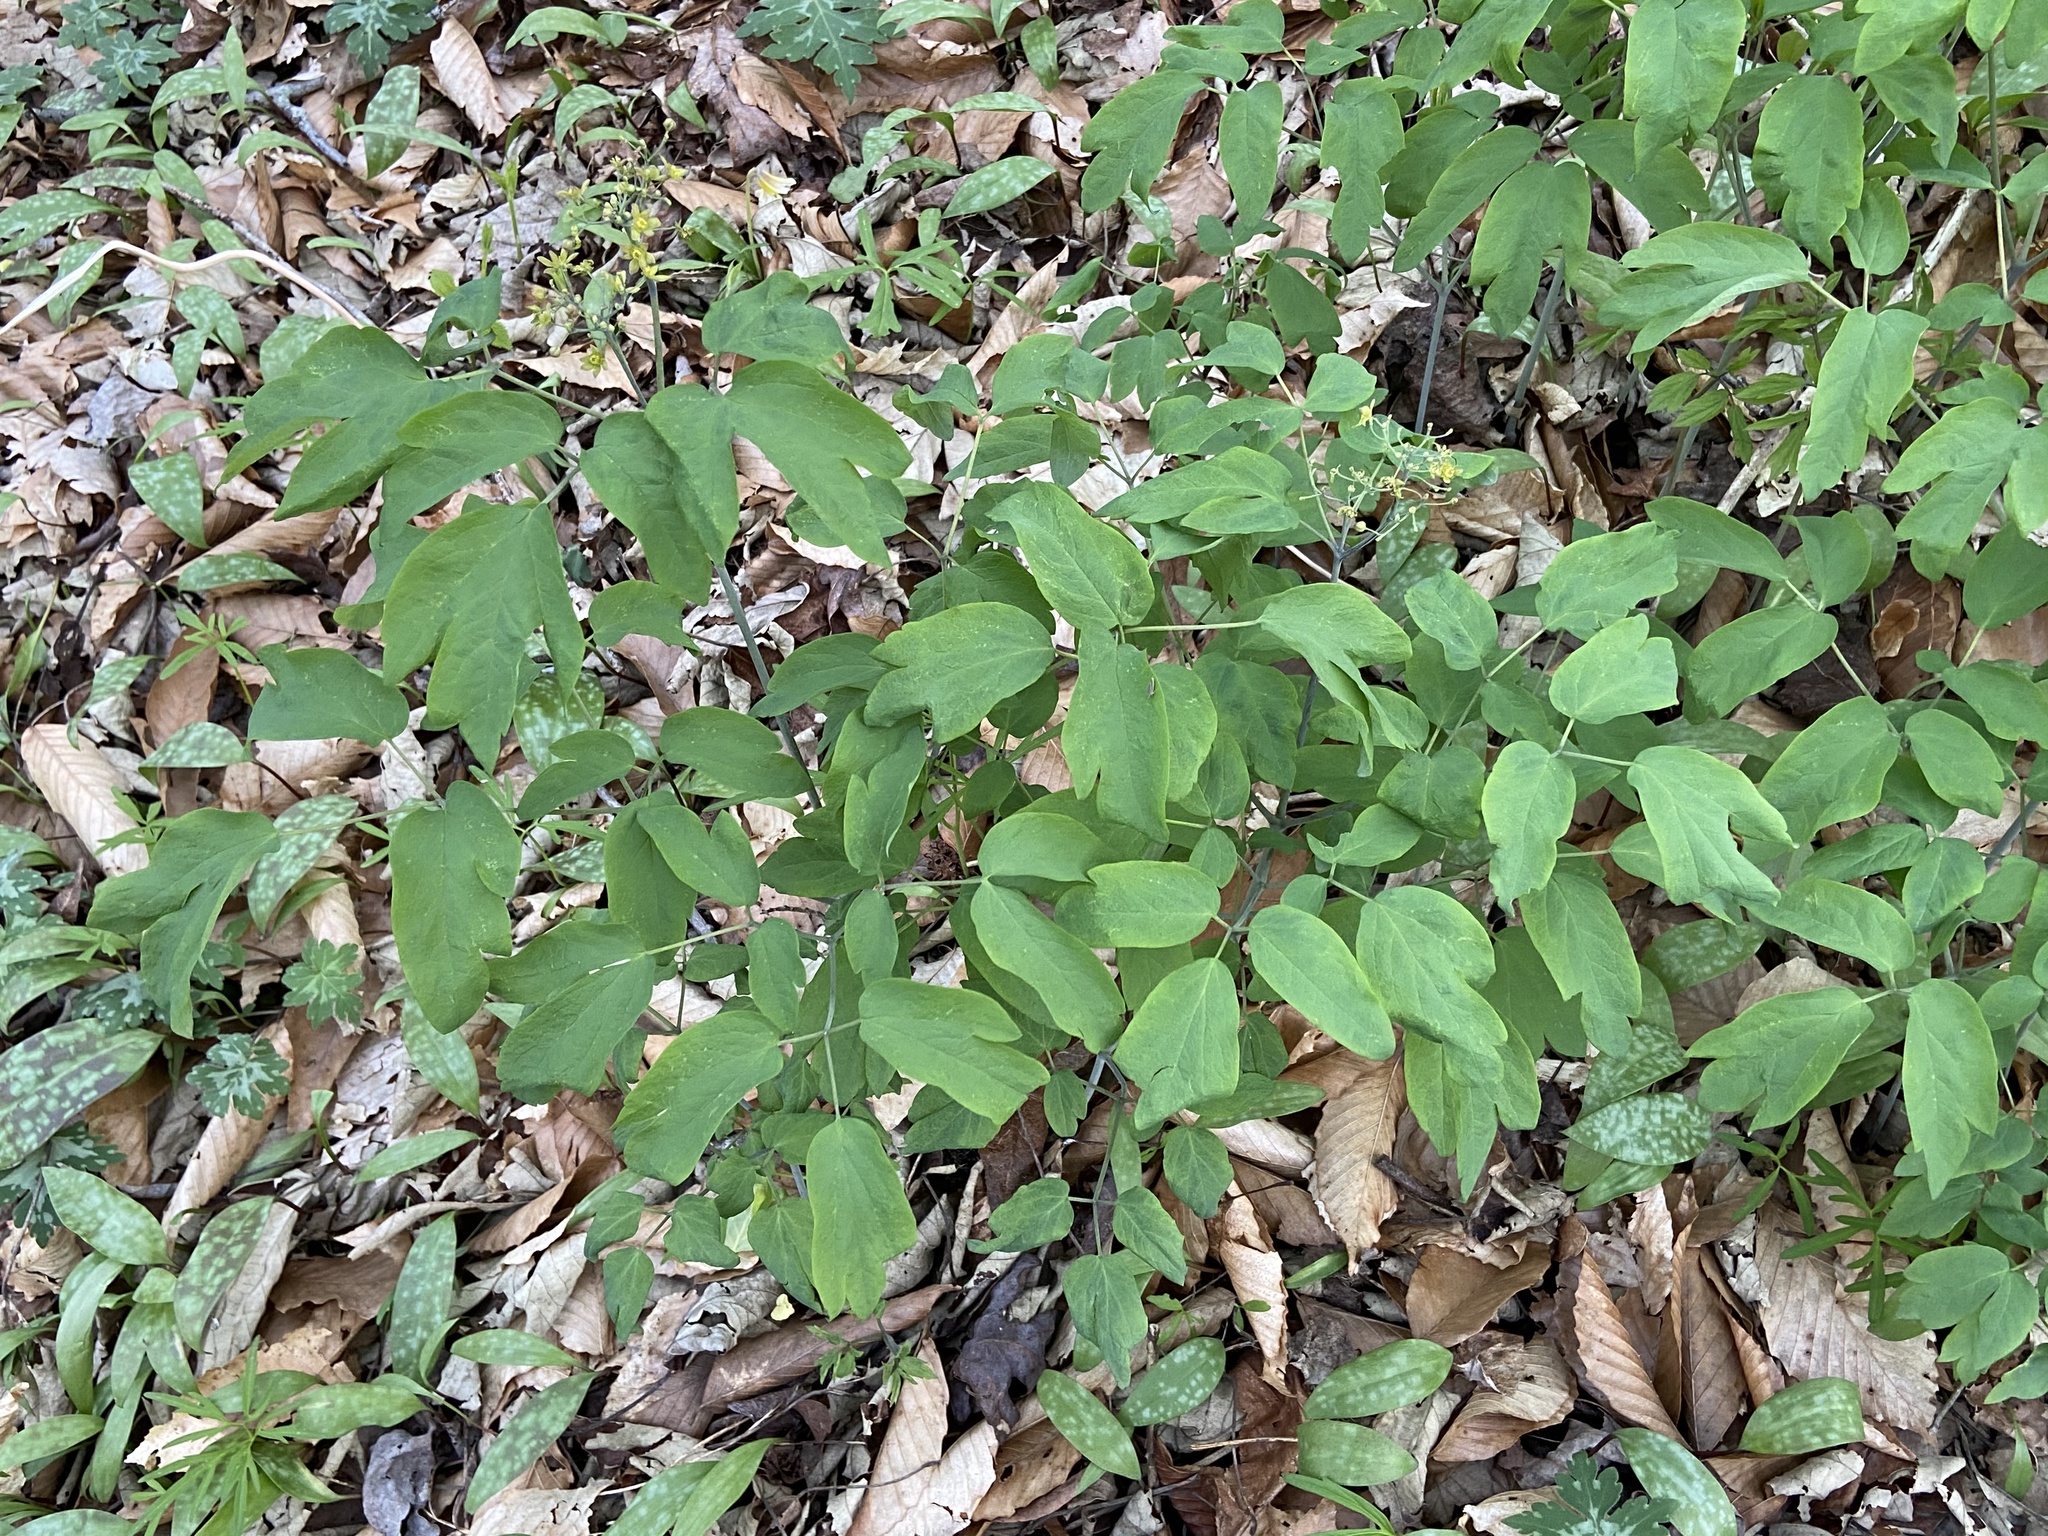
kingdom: Plantae
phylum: Tracheophyta
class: Magnoliopsida
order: Ranunculales
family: Berberidaceae
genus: Caulophyllum
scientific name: Caulophyllum thalictroides
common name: Blue cohosh
